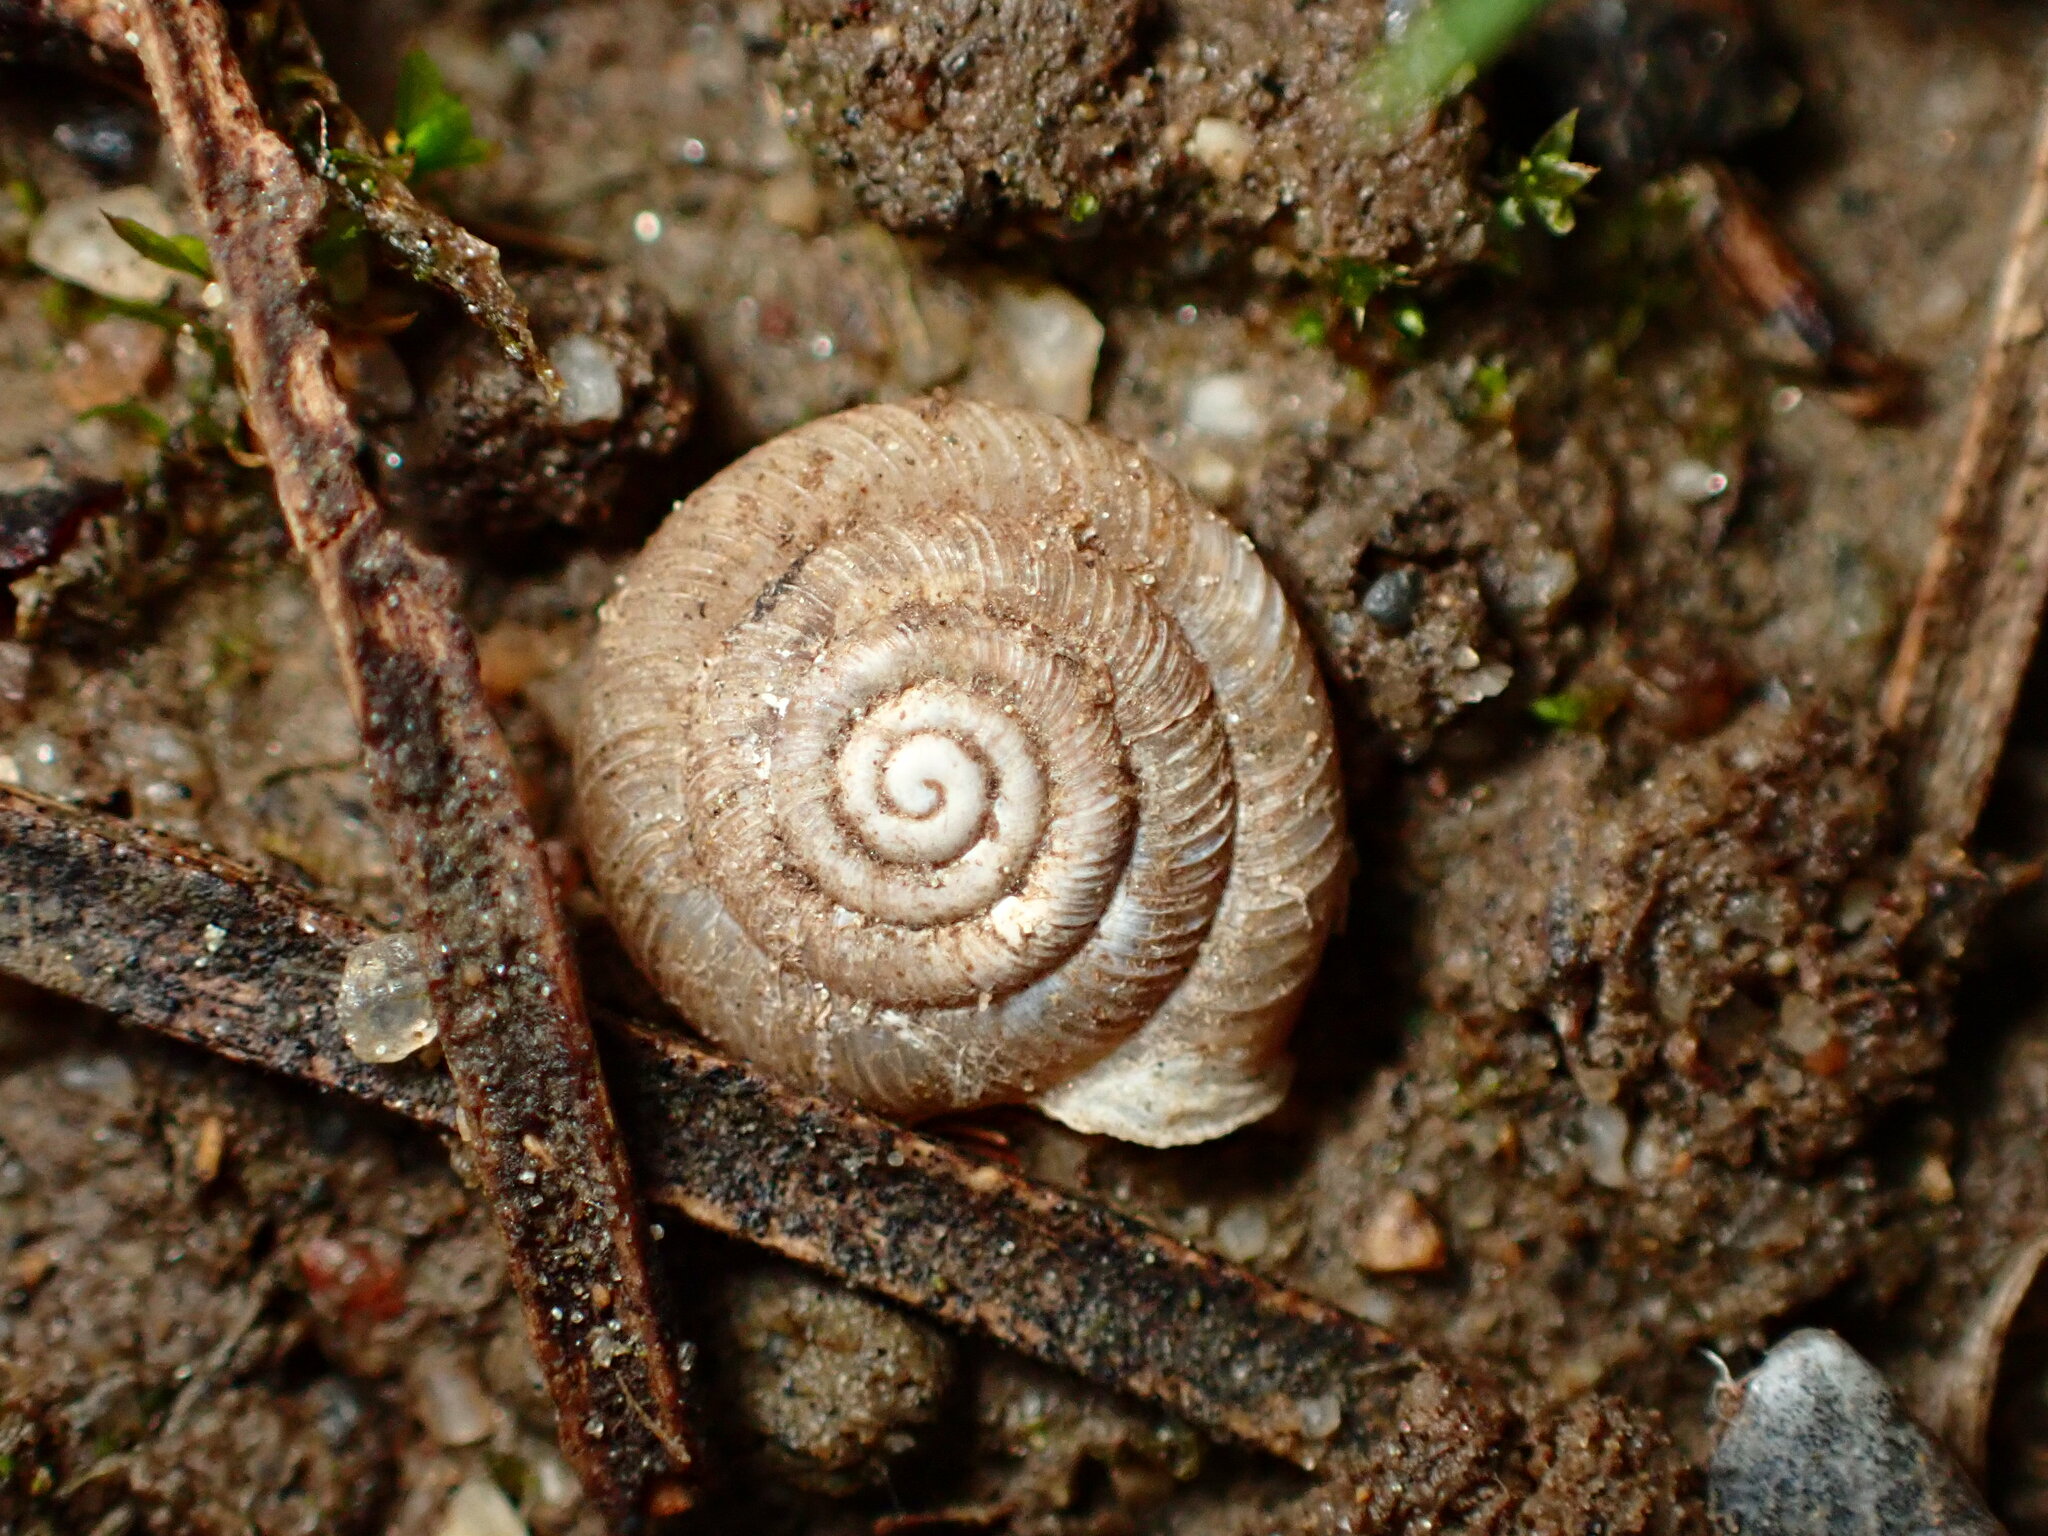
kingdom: Animalia
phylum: Mollusca
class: Gastropoda
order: Stylommatophora
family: Polygyridae
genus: Polygyra
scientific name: Polygyra cereolus
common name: Southern flatcone snail
